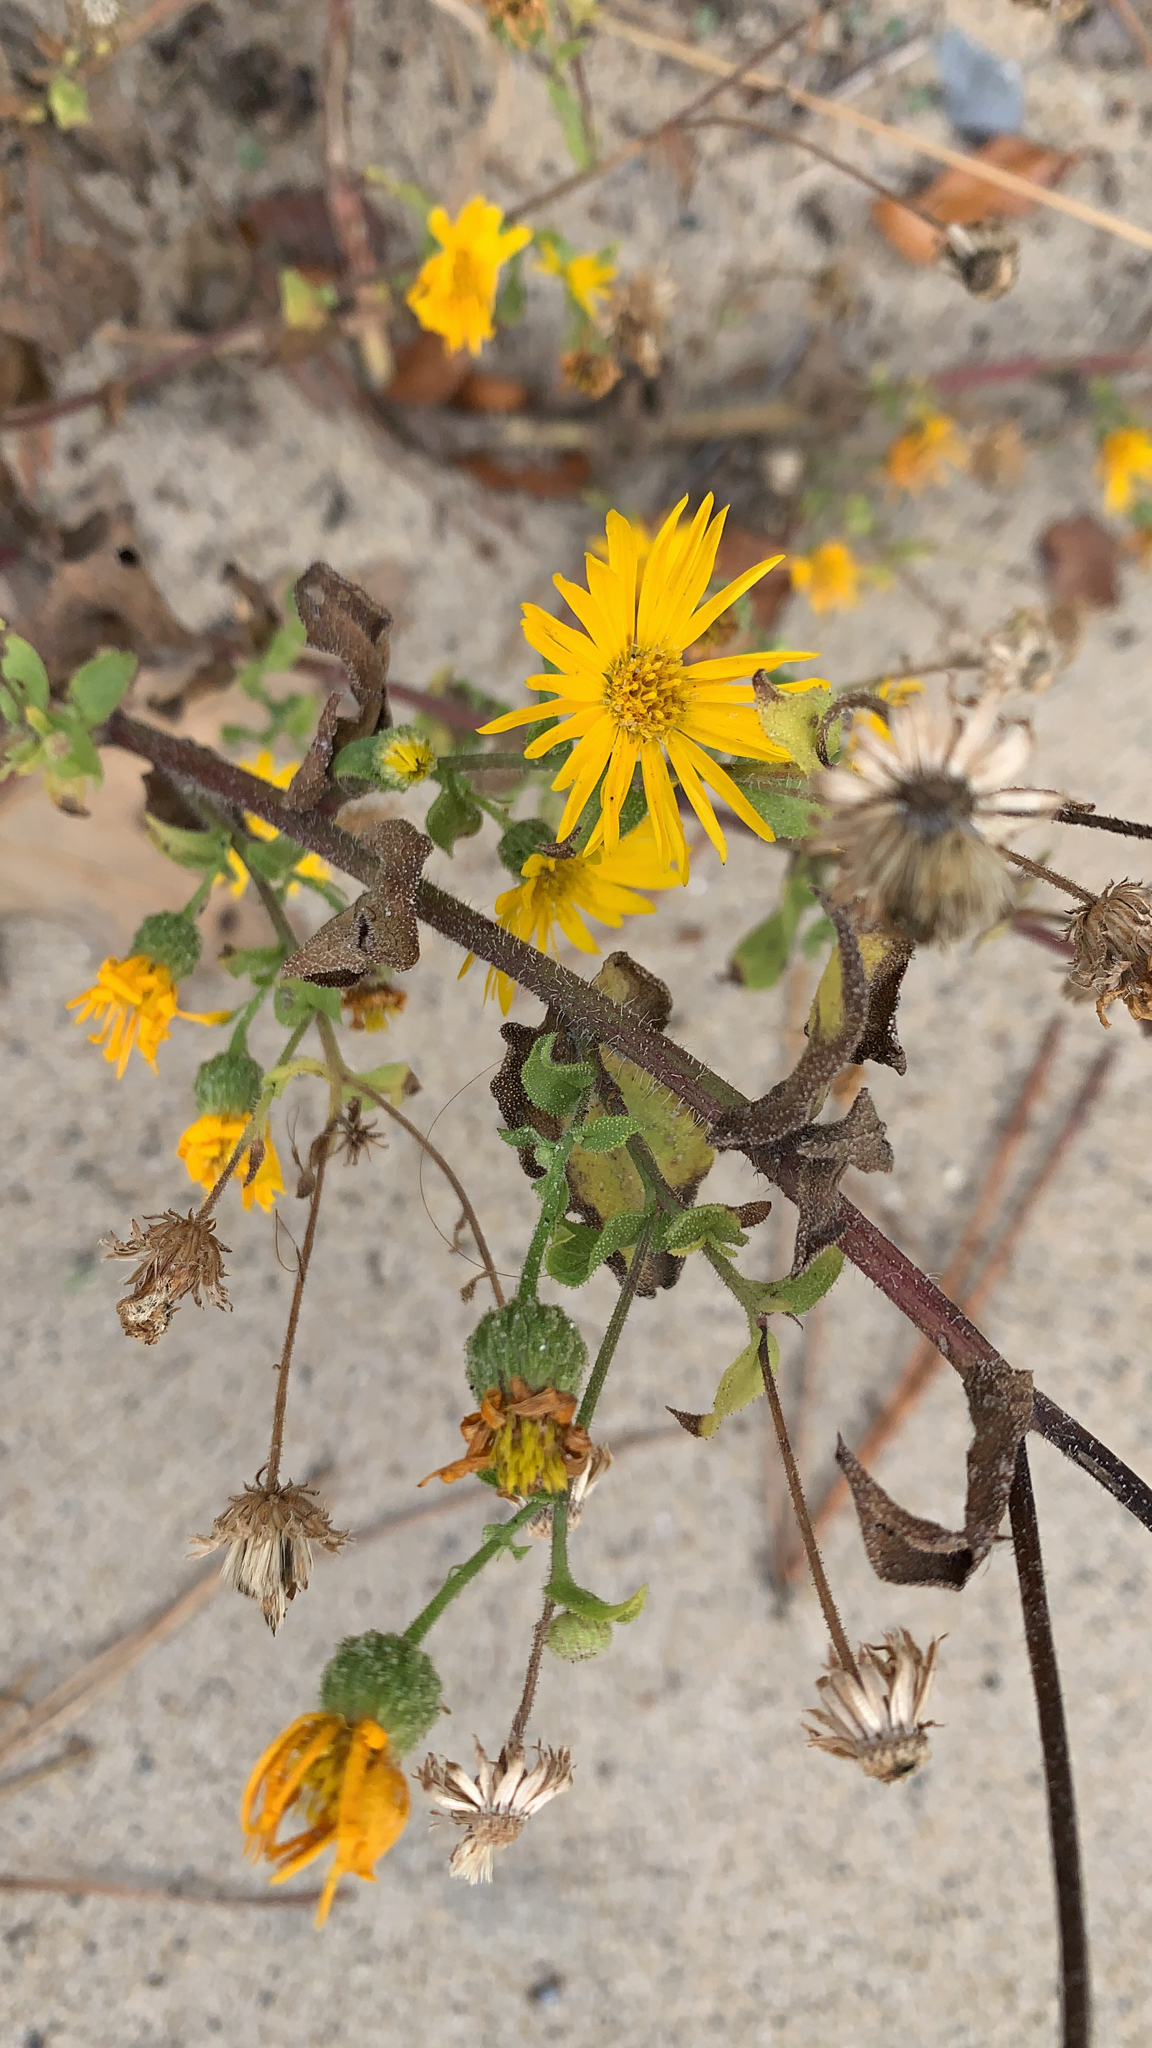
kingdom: Plantae
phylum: Tracheophyta
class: Magnoliopsida
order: Asterales
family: Asteraceae
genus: Heterotheca
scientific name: Heterotheca subaxillaris
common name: Camphorweed
